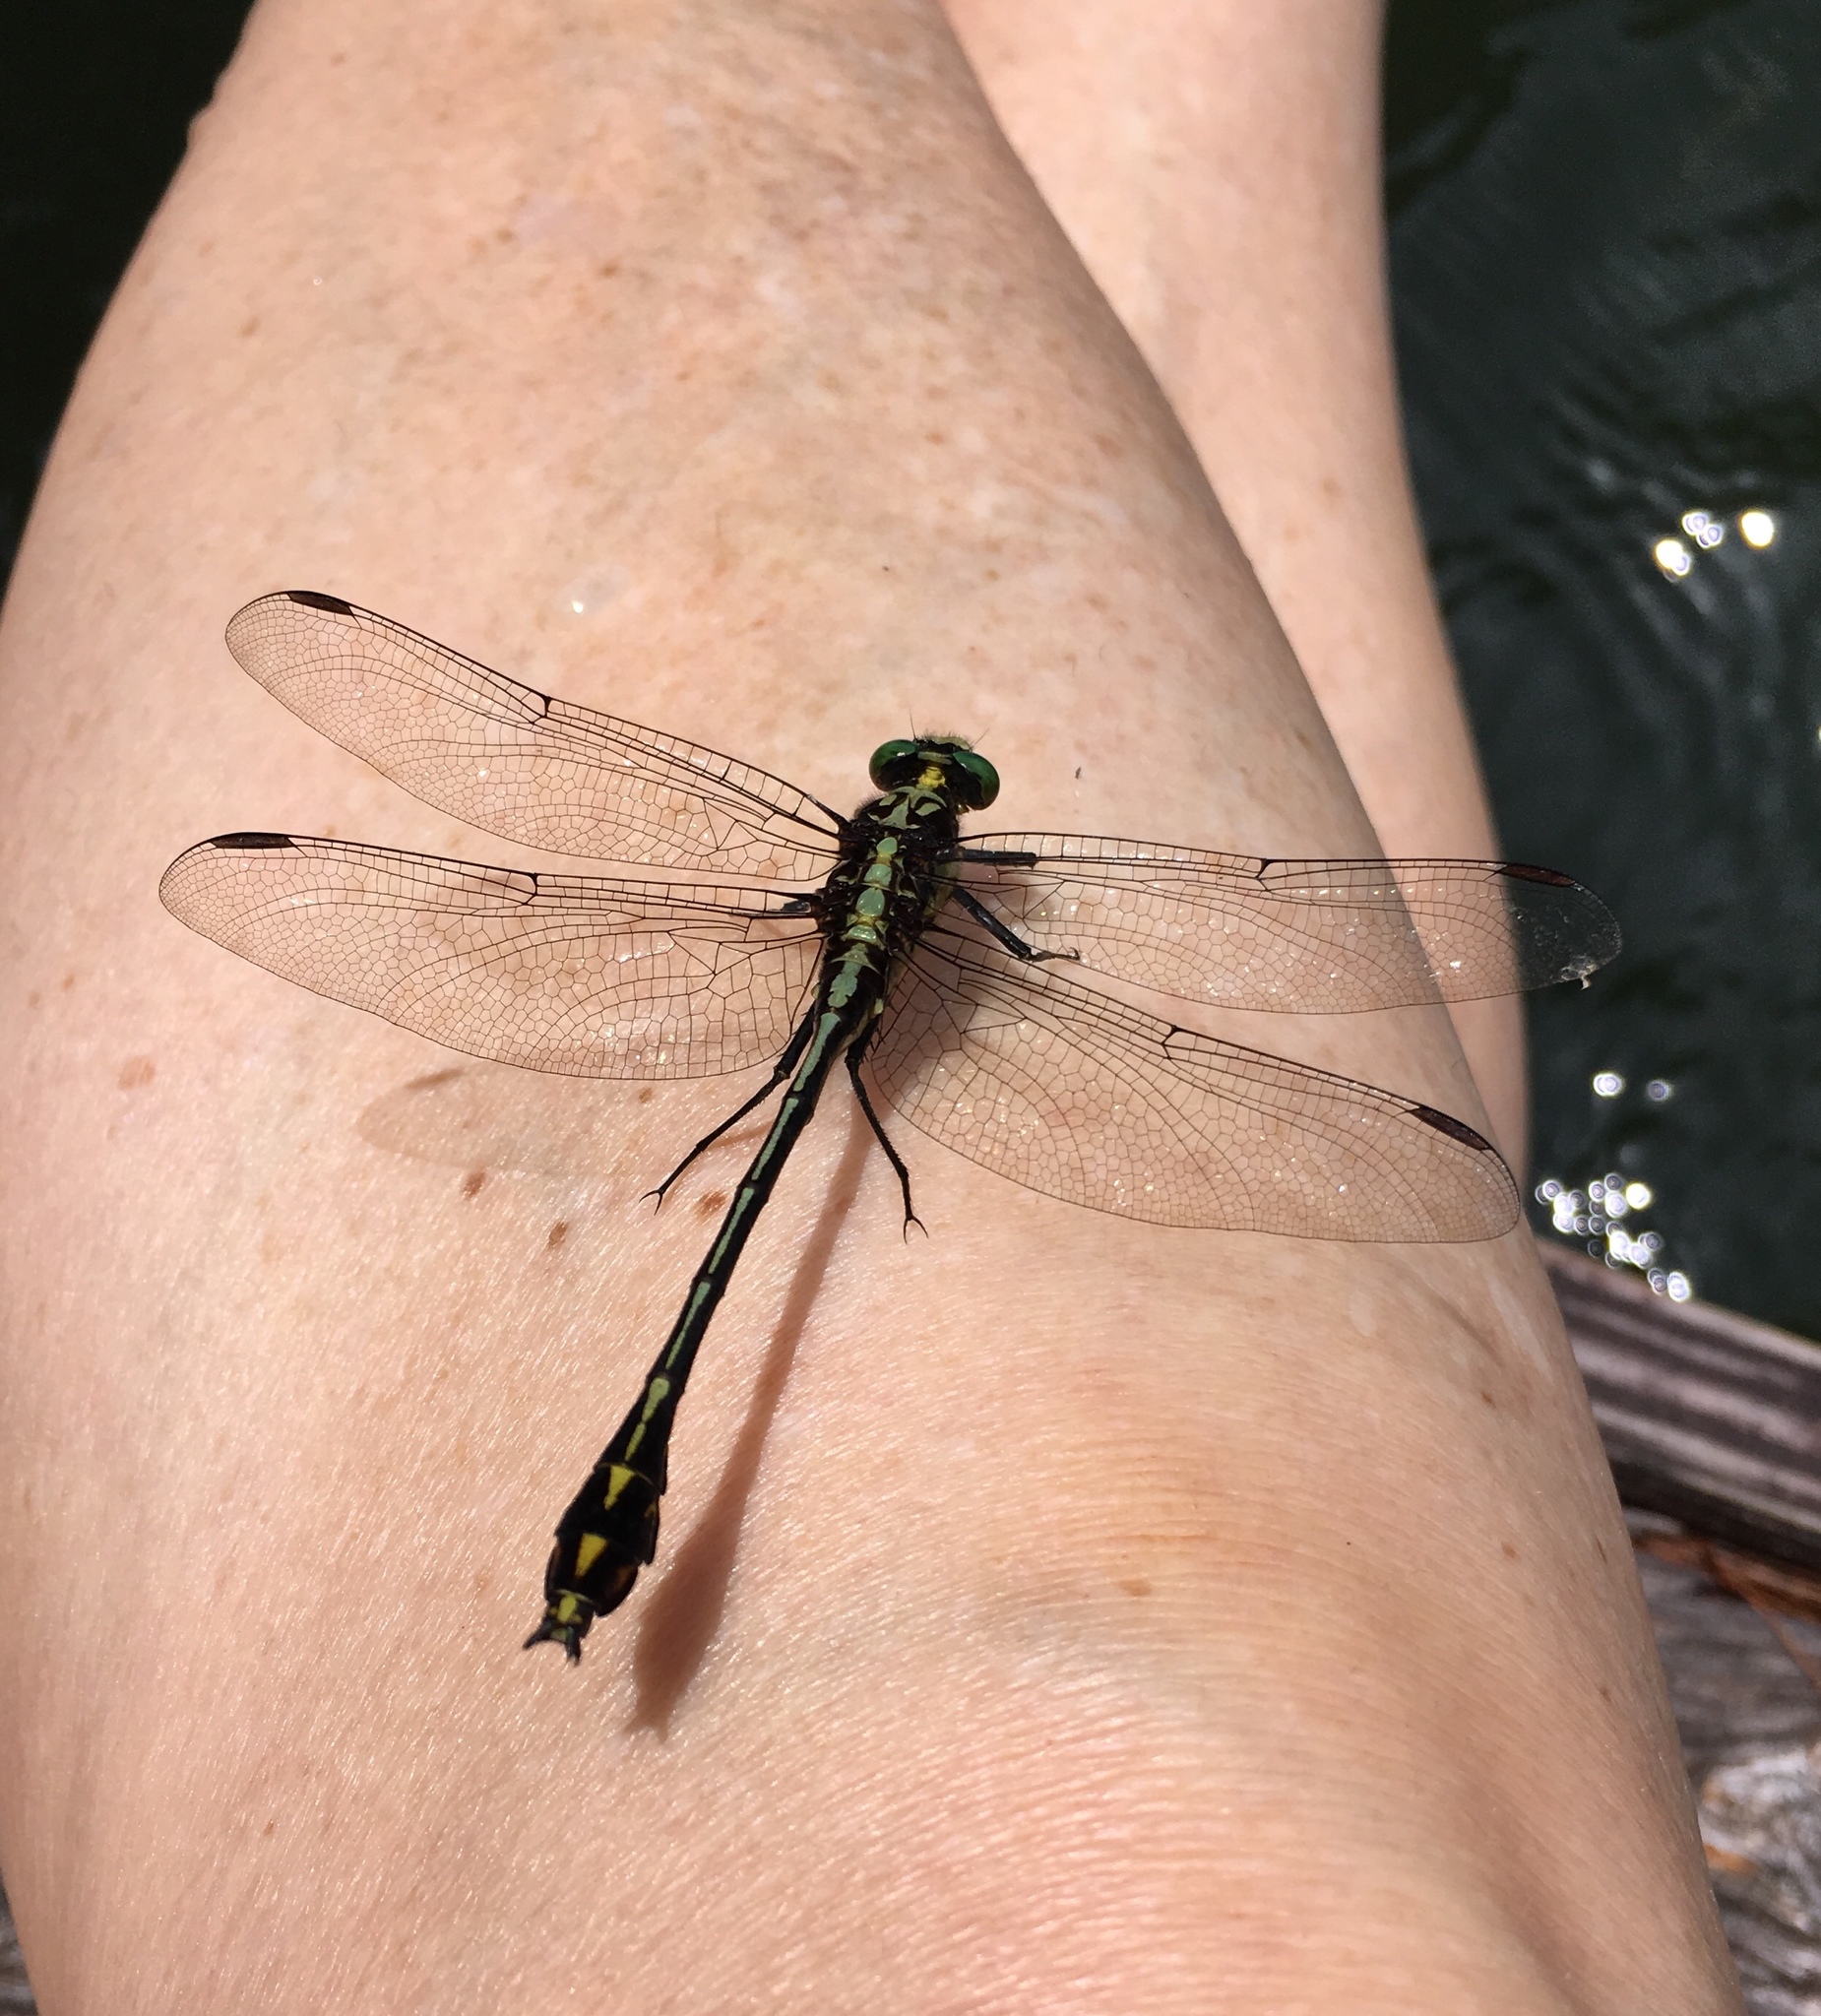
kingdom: Animalia
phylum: Arthropoda
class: Insecta
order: Odonata
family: Gomphidae
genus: Dromogomphus
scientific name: Dromogomphus spinosus
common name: Black-shouldered spinyleg
